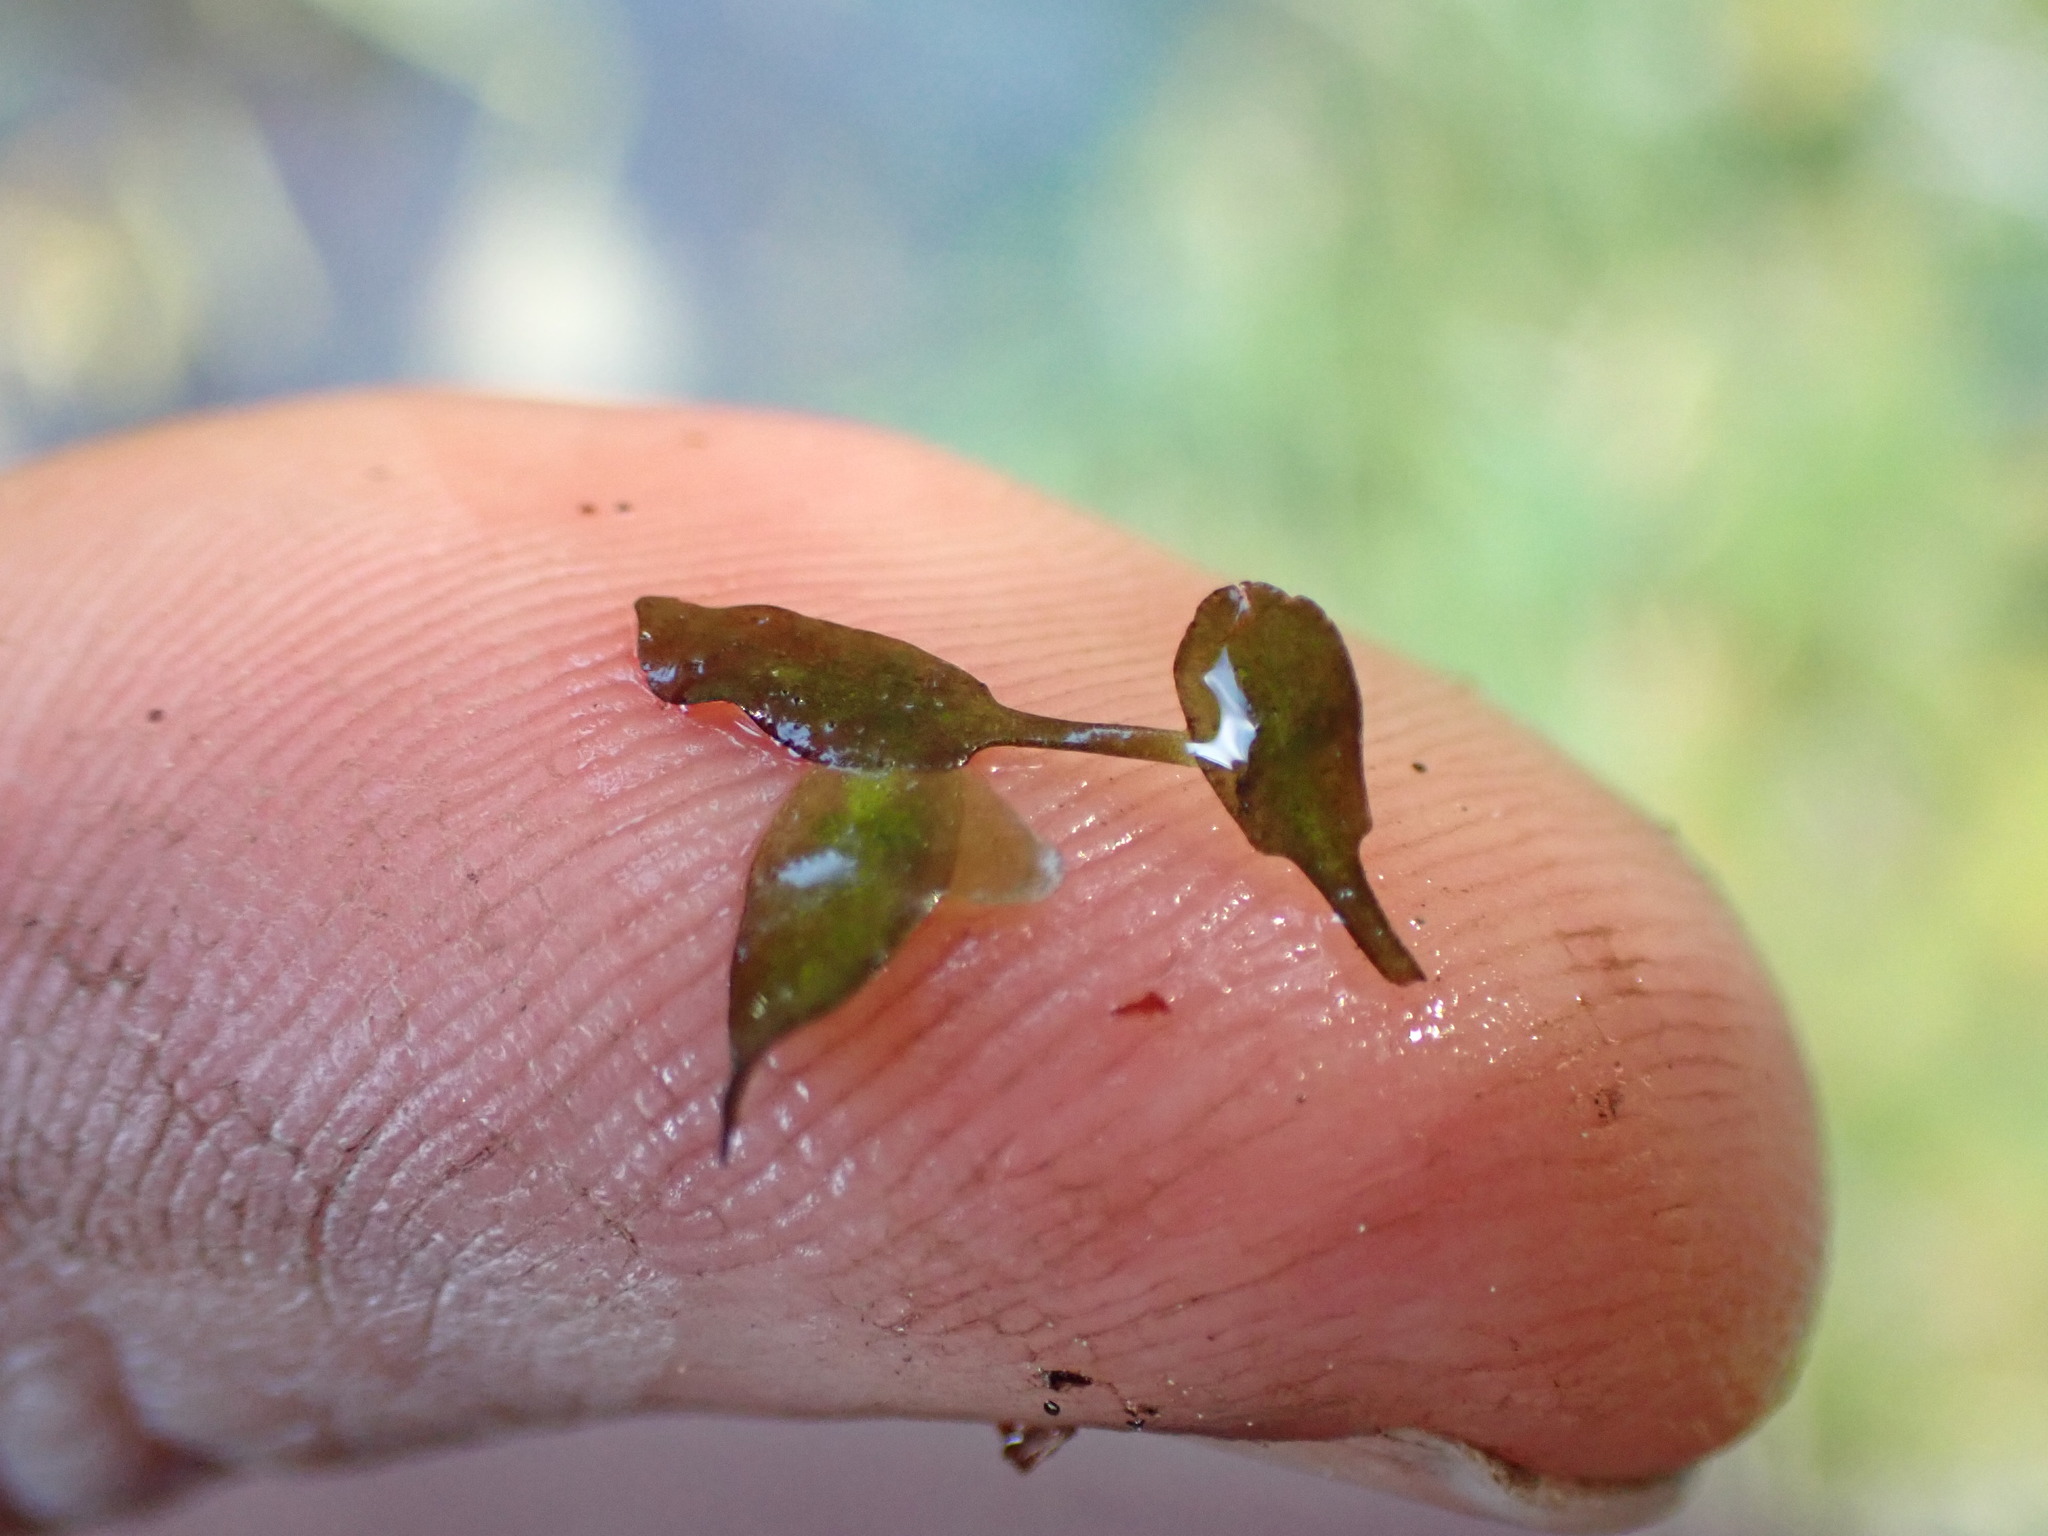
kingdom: Plantae
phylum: Tracheophyta
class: Liliopsida
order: Alismatales
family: Araceae
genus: Lemna
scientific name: Lemna trisulca
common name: Ivy-leaved duckweed
